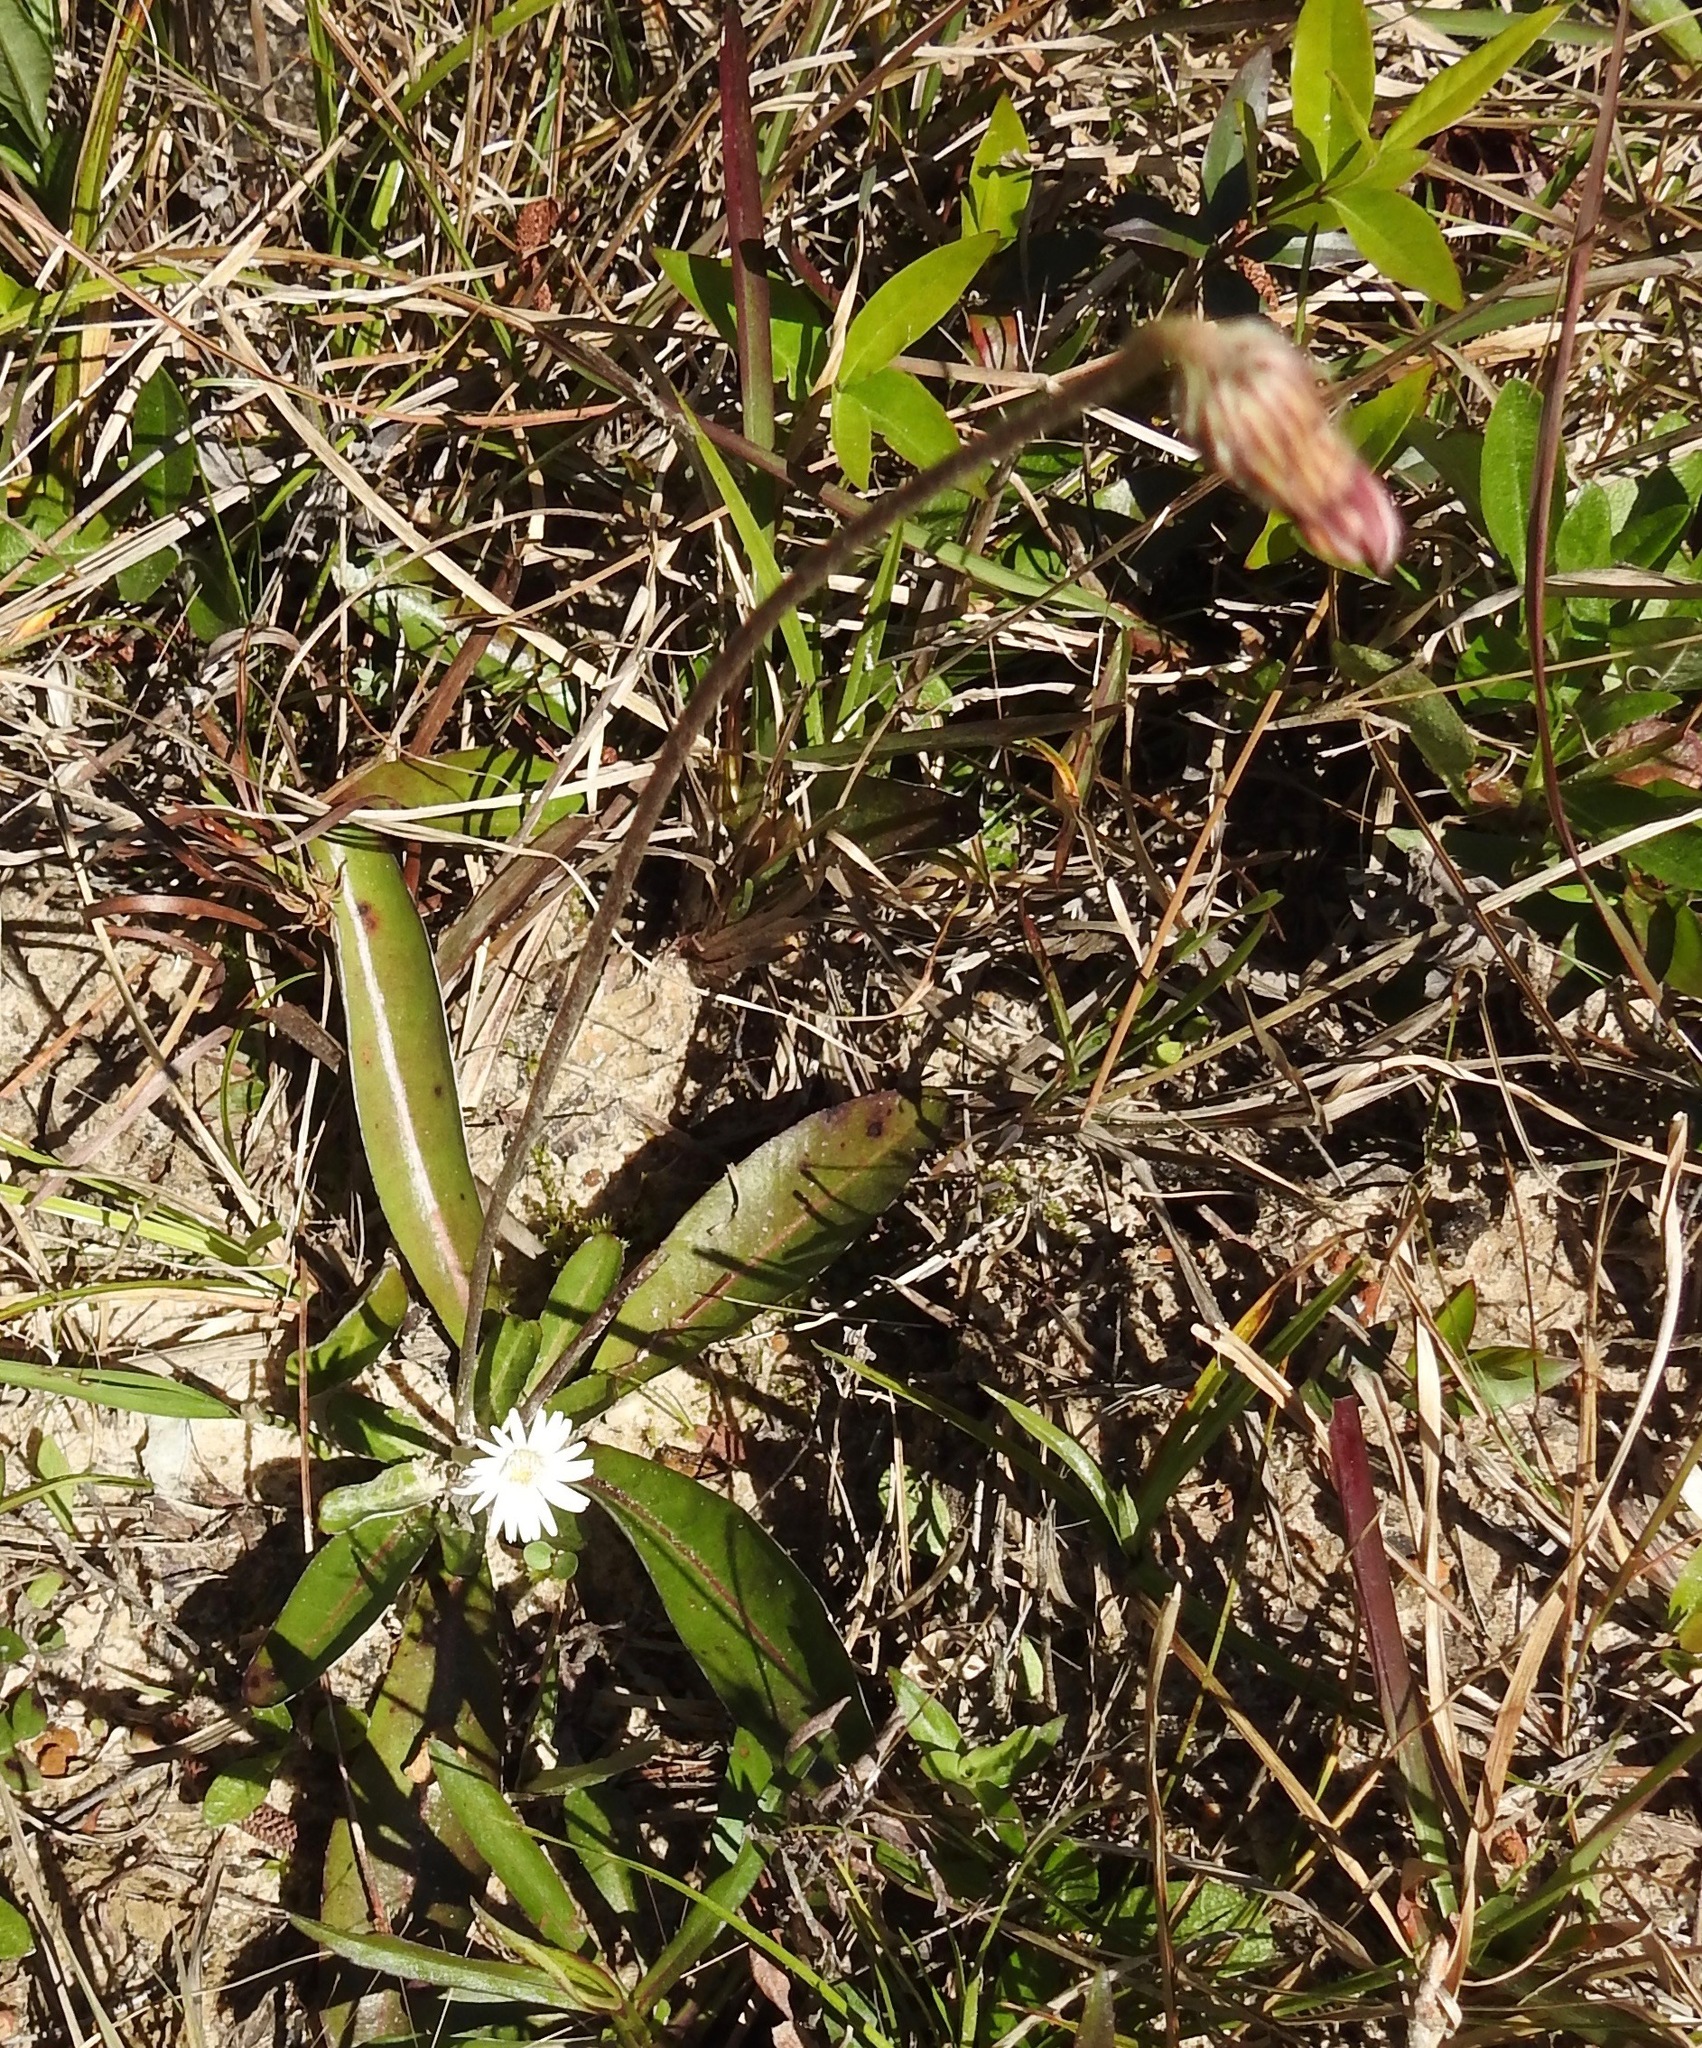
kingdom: Plantae
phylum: Tracheophyta
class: Magnoliopsida
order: Asterales
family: Asteraceae
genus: Chaptalia
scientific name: Chaptalia tomentosa
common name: Woolly sunbonnet
